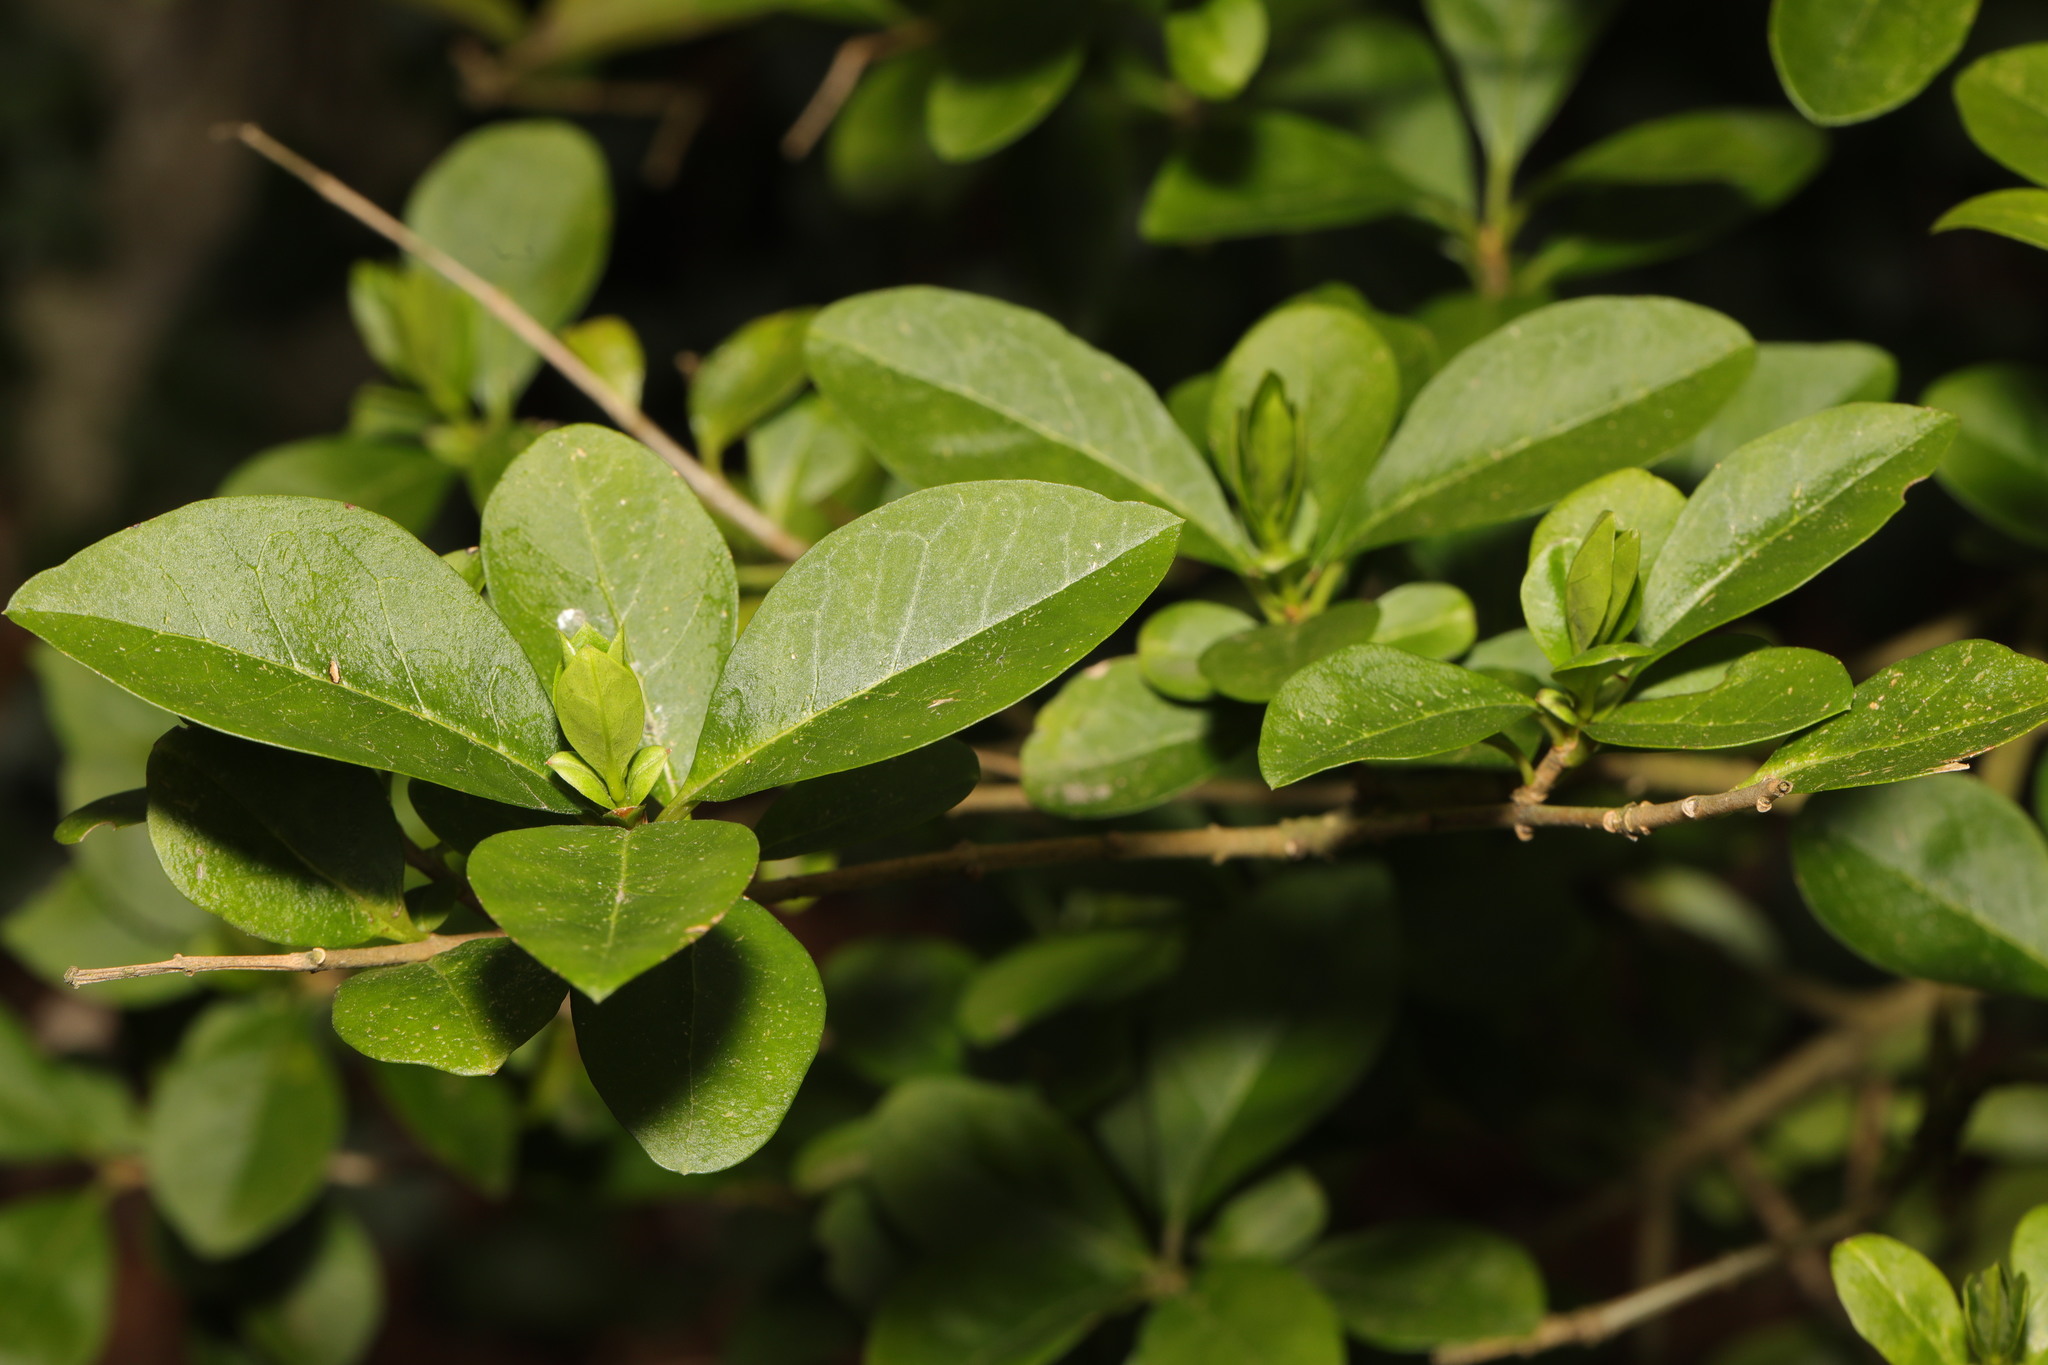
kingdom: Plantae
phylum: Tracheophyta
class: Magnoliopsida
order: Lamiales
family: Oleaceae
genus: Ligustrum
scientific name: Ligustrum ovalifolium
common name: California privet
